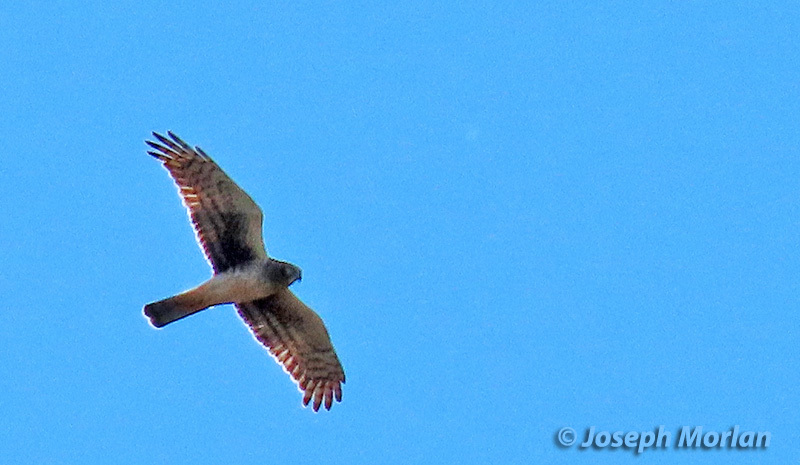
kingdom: Animalia
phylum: Chordata
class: Aves
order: Accipitriformes
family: Accipitridae
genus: Circus
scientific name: Circus cyaneus
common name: Hen harrier
